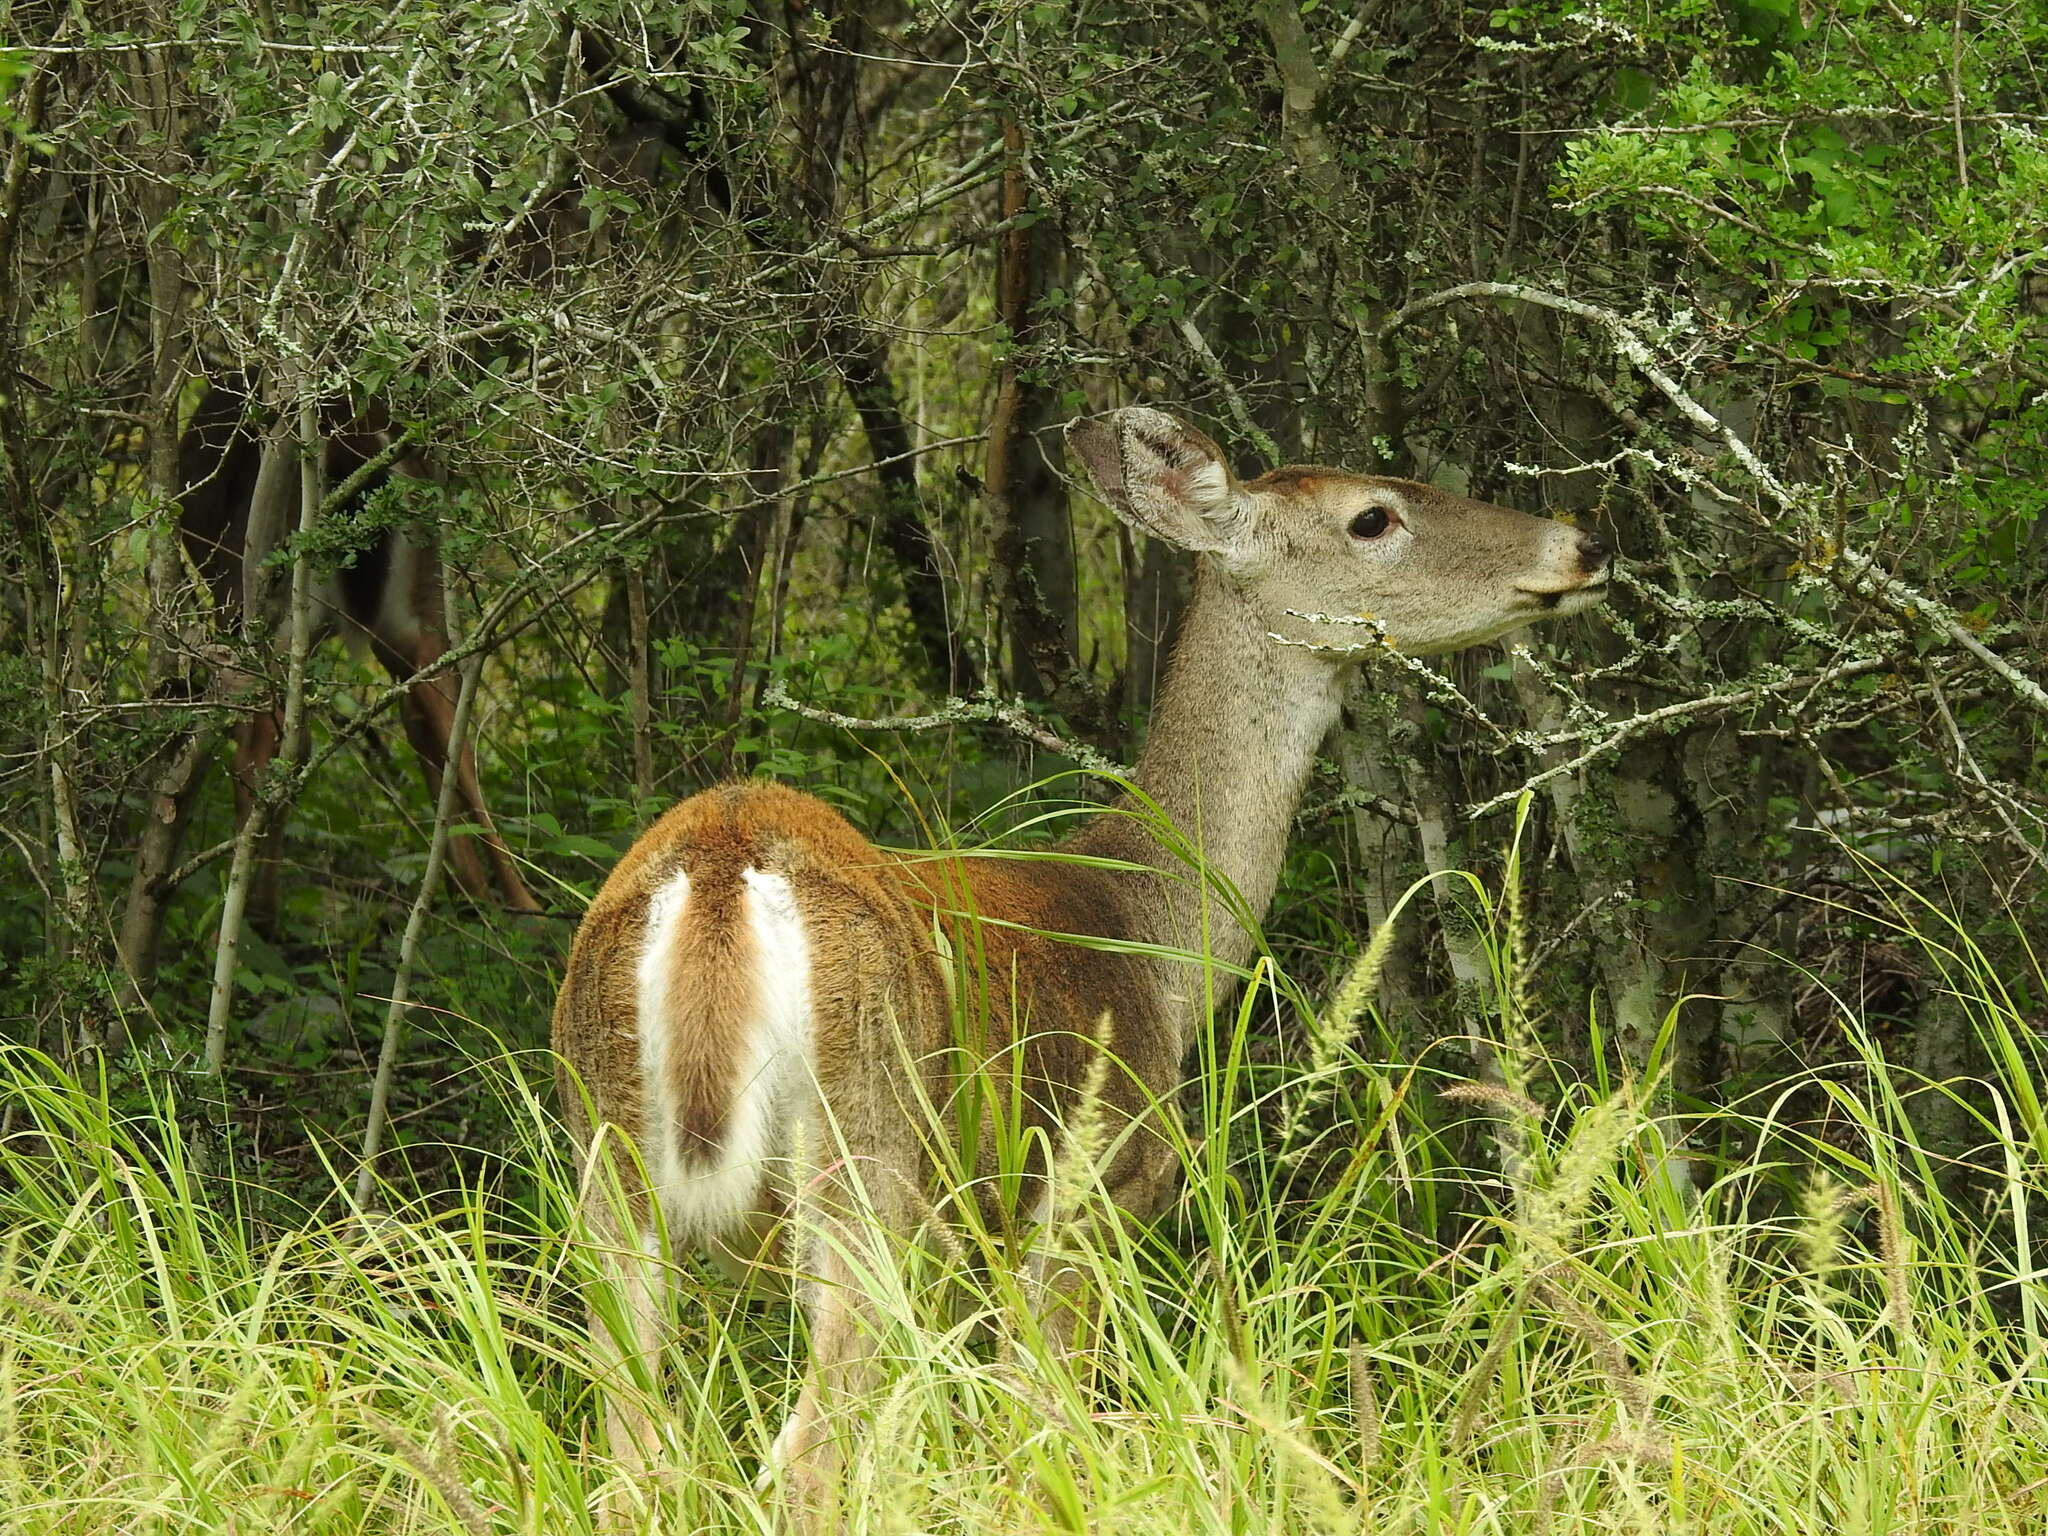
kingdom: Animalia
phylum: Chordata
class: Mammalia
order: Artiodactyla
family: Cervidae
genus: Odocoileus
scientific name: Odocoileus virginianus
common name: White-tailed deer
